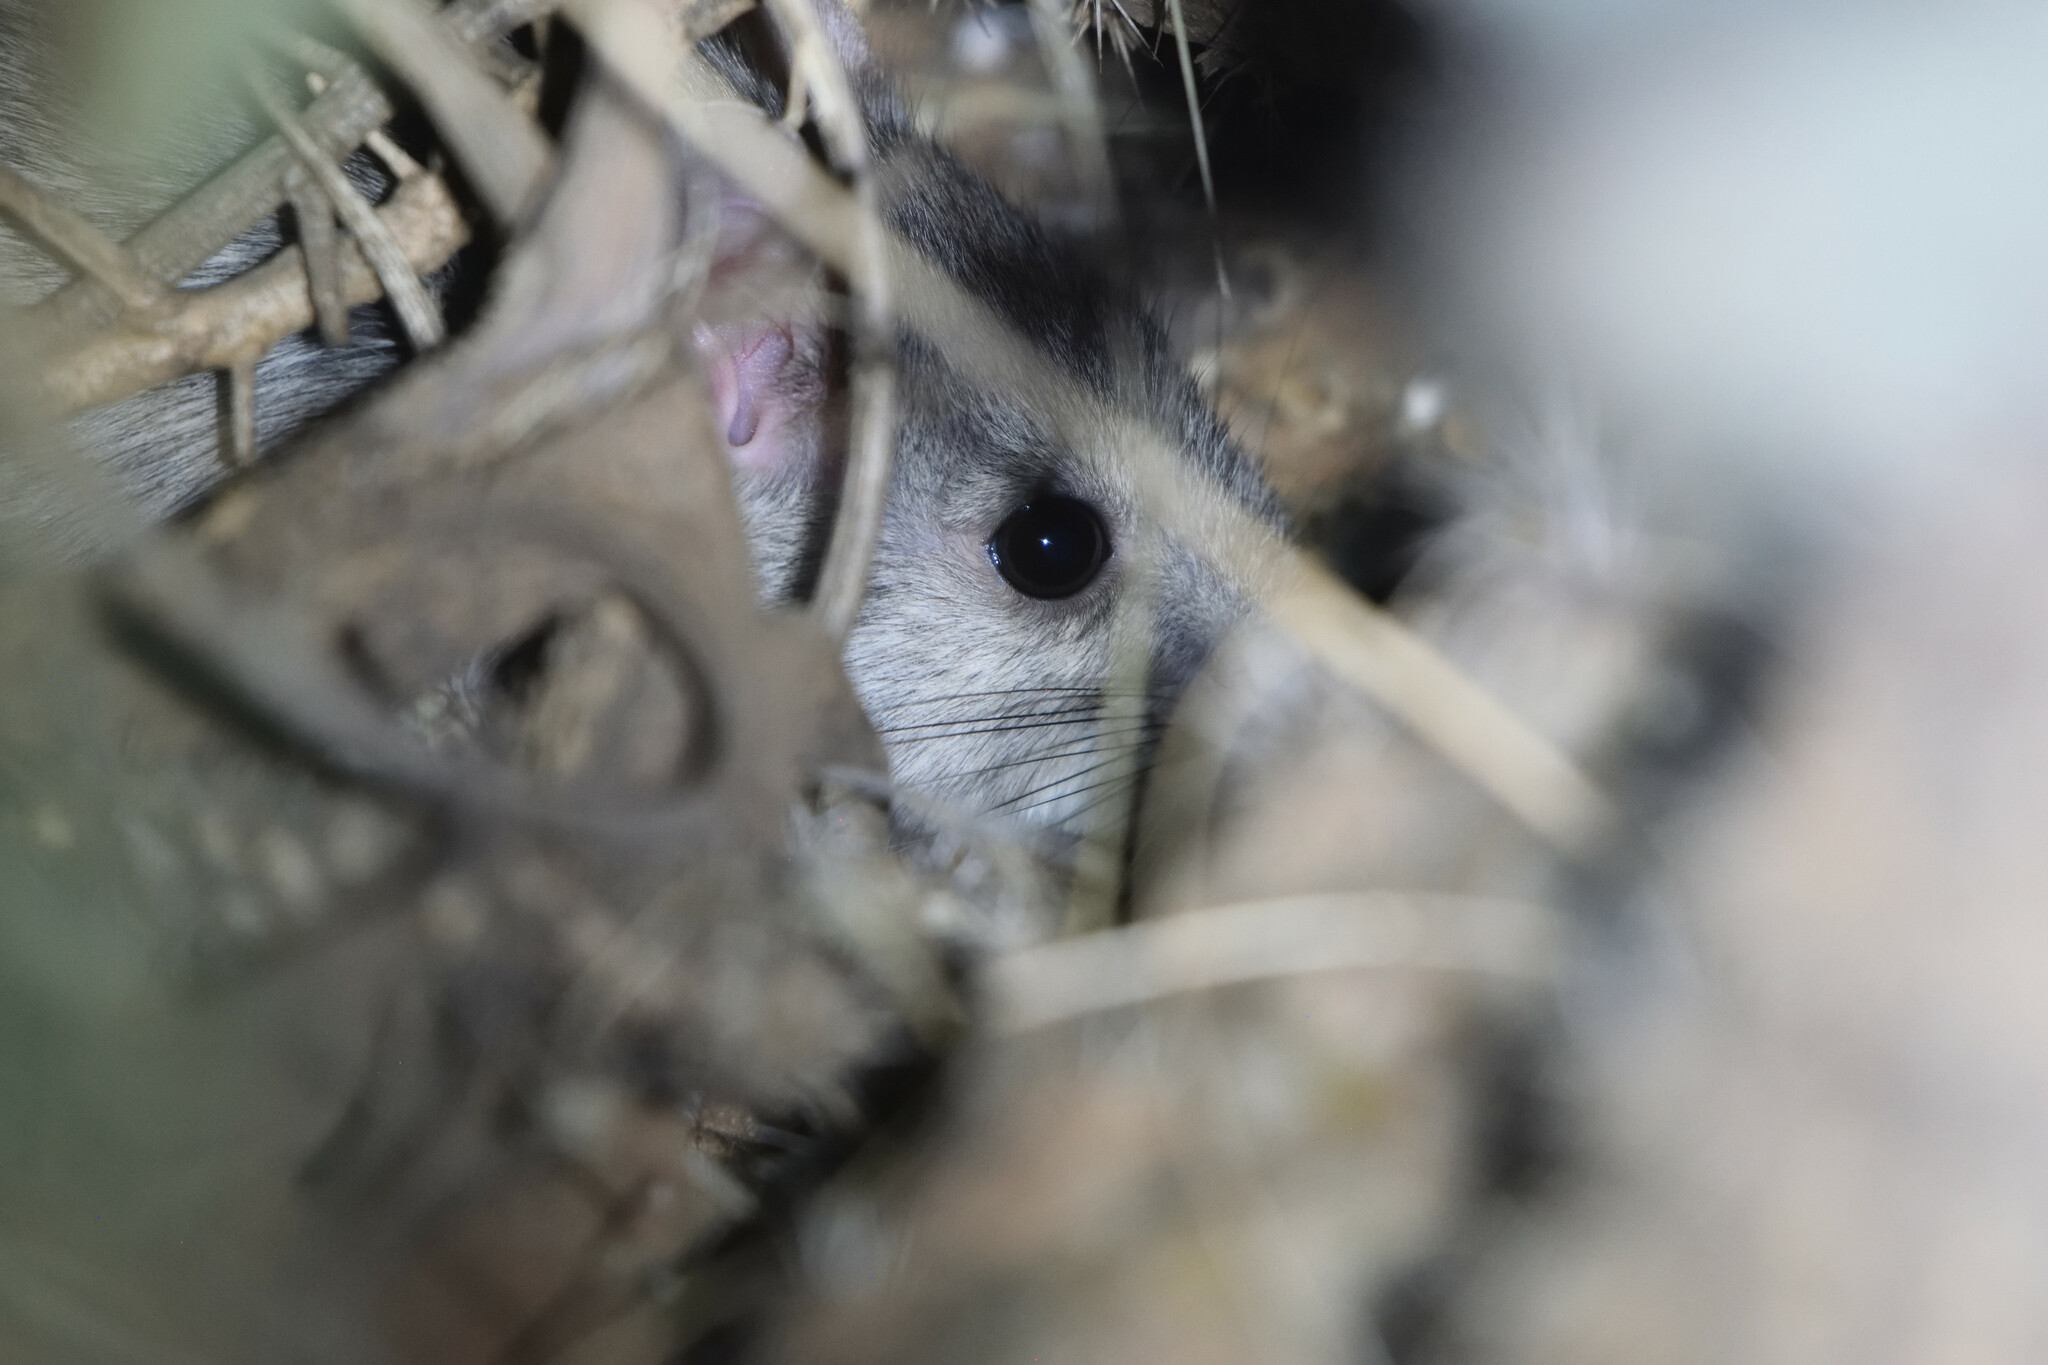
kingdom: Animalia
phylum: Chordata
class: Mammalia
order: Rodentia
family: Cricetidae
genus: Neotoma
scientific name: Neotoma albigula
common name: White-throated woodrat
